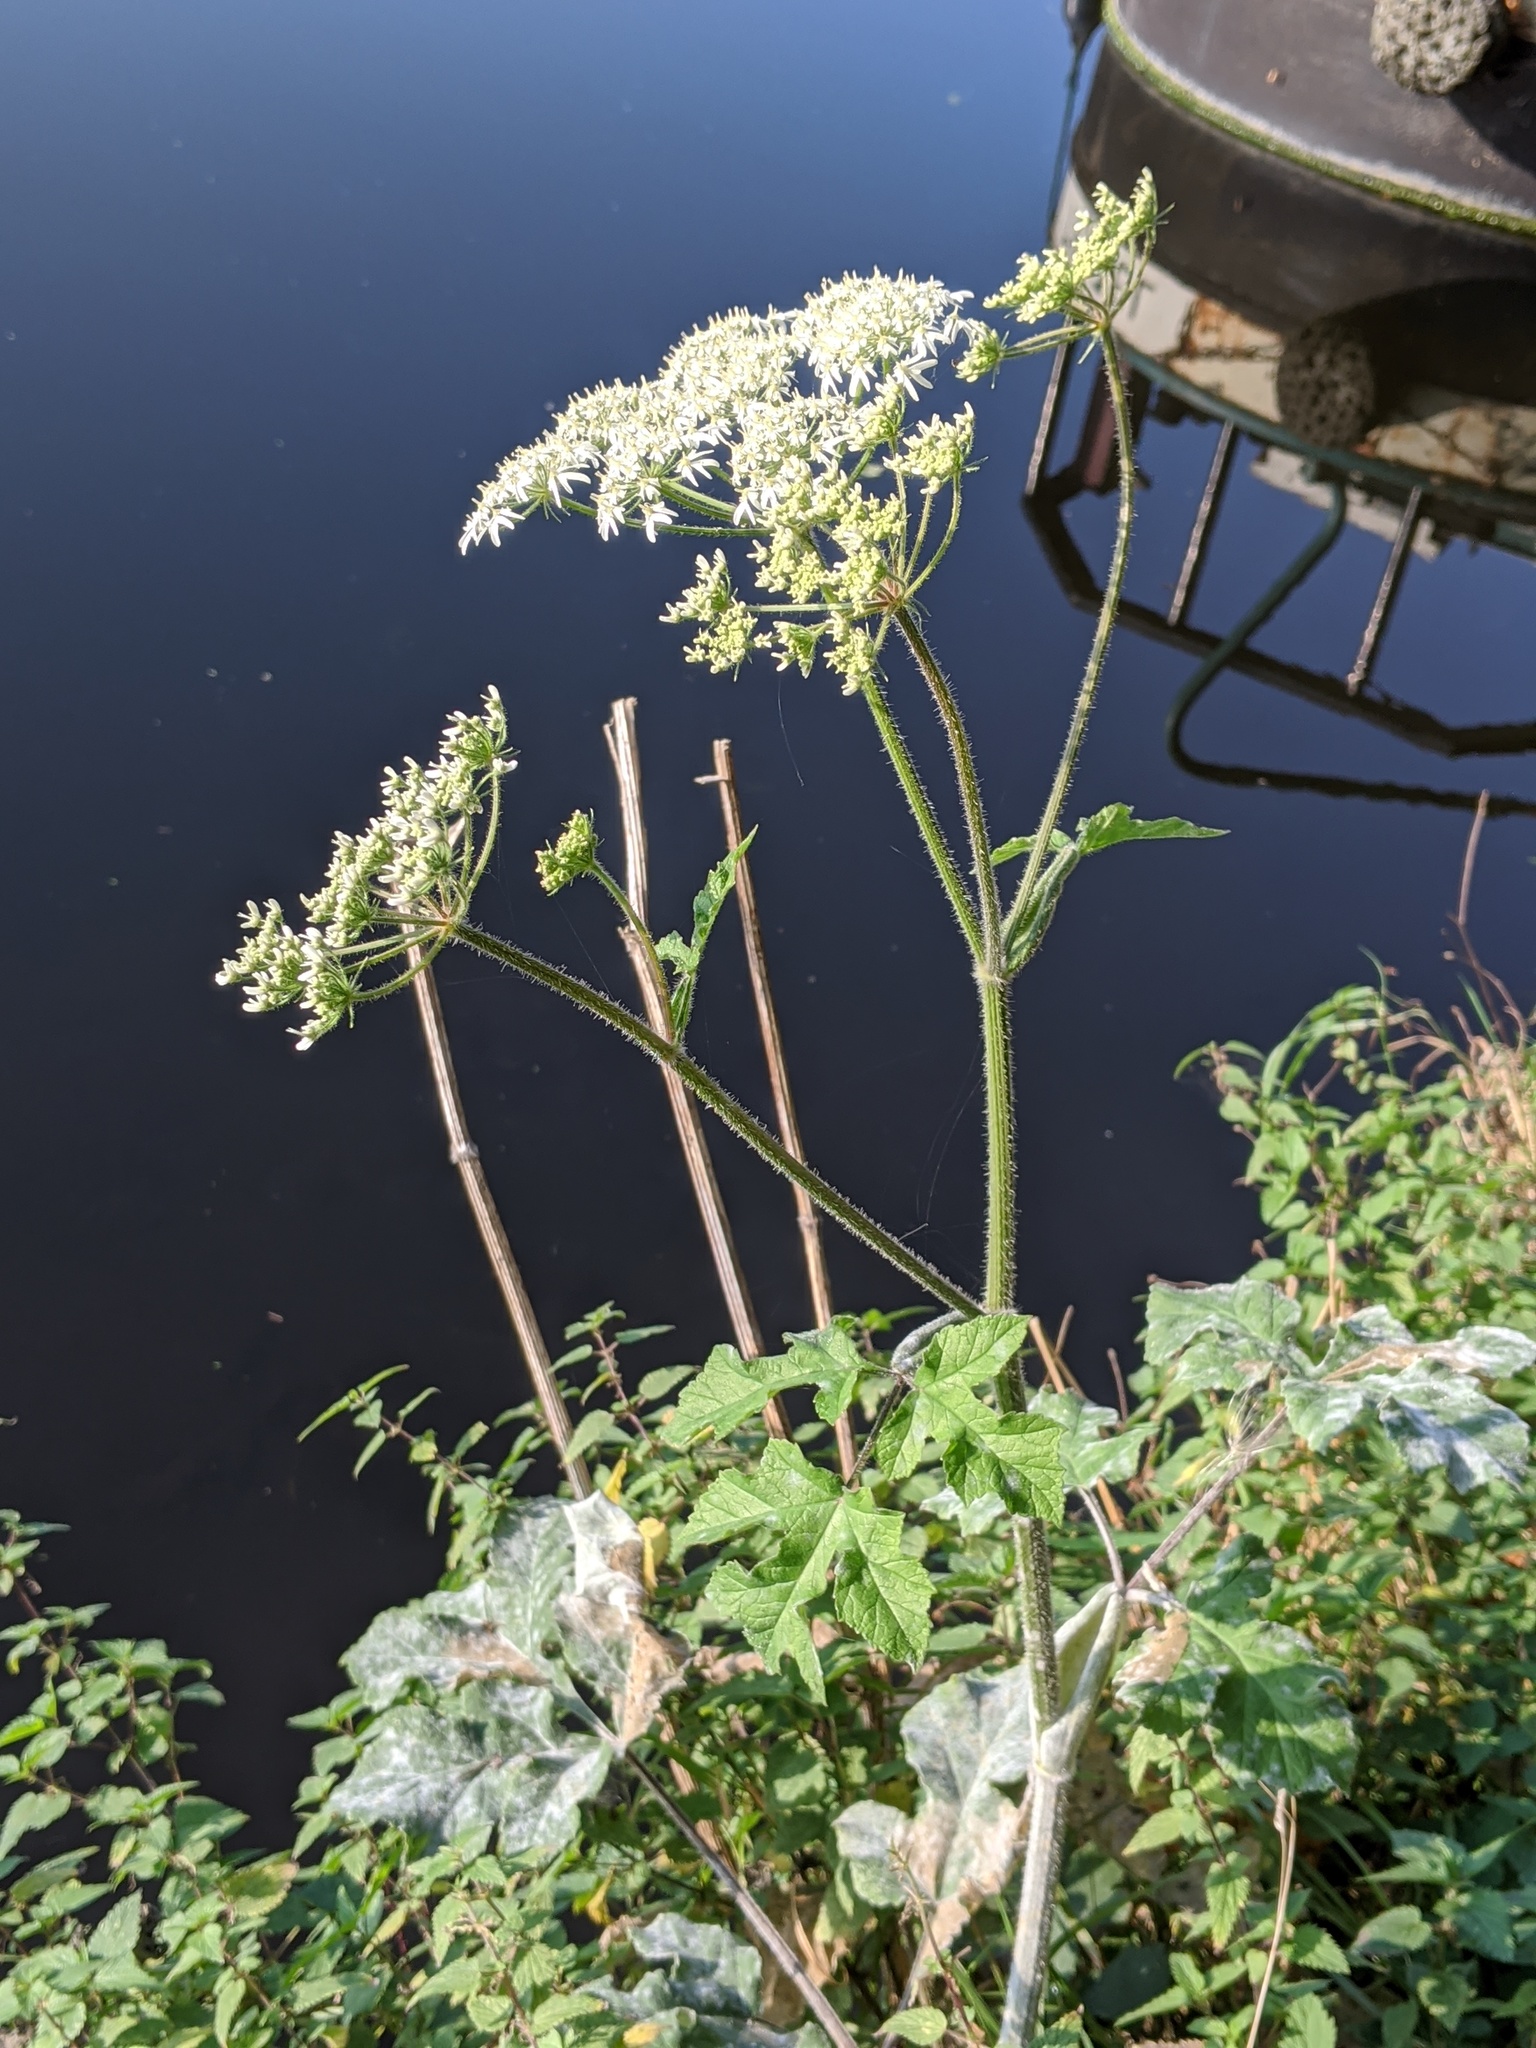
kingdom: Plantae
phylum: Tracheophyta
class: Magnoliopsida
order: Apiales
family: Apiaceae
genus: Heracleum
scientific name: Heracleum sphondylium
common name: Hogweed
